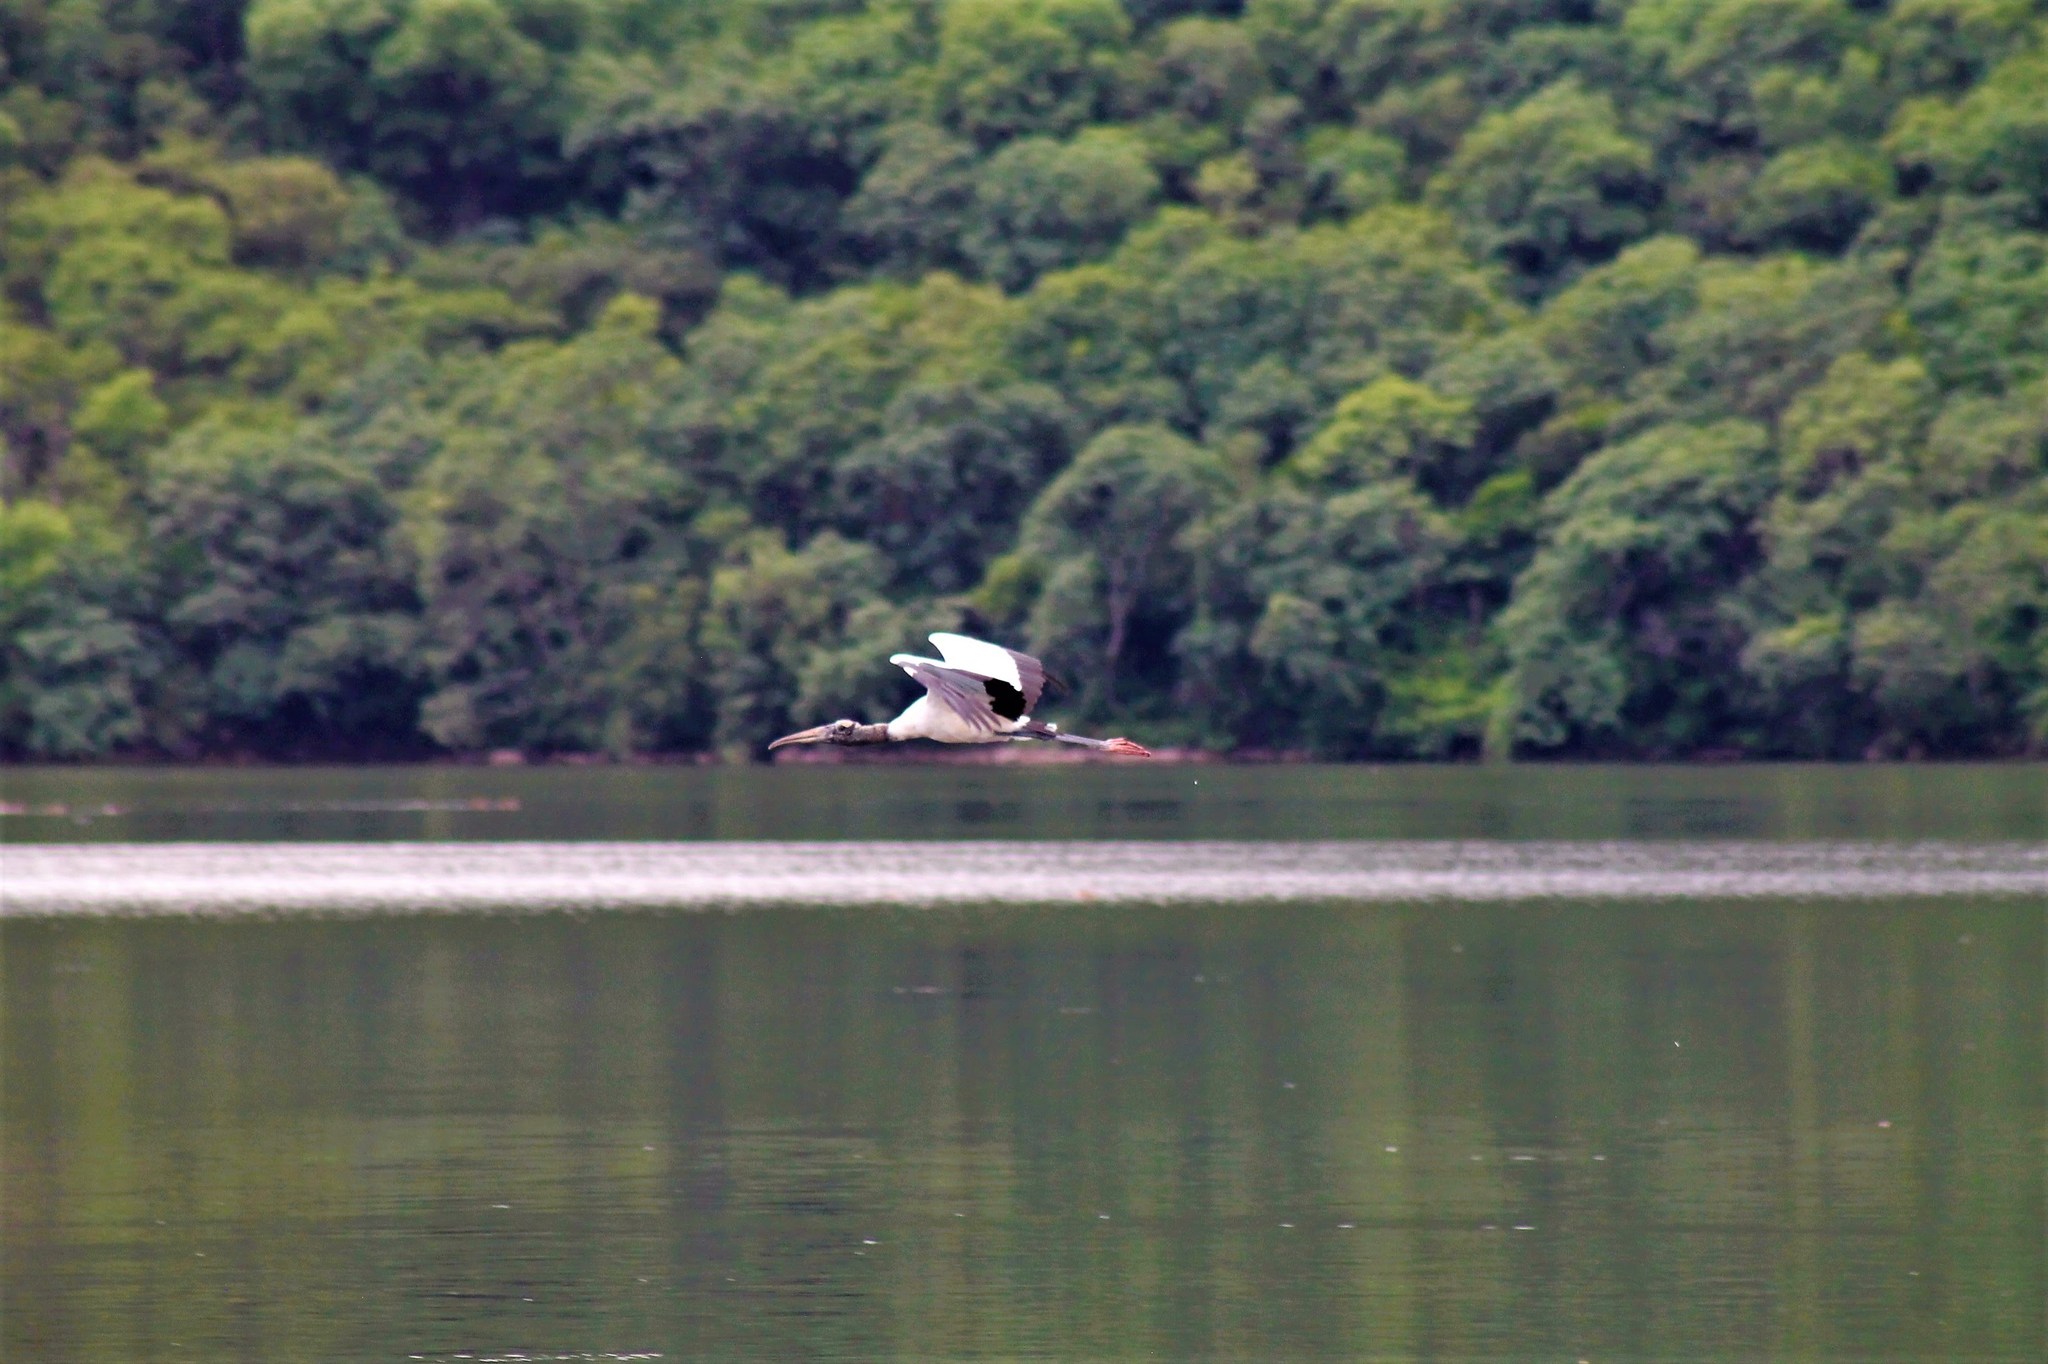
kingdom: Animalia
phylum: Chordata
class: Aves
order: Ciconiiformes
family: Ciconiidae
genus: Mycteria
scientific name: Mycteria americana
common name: Wood stork
